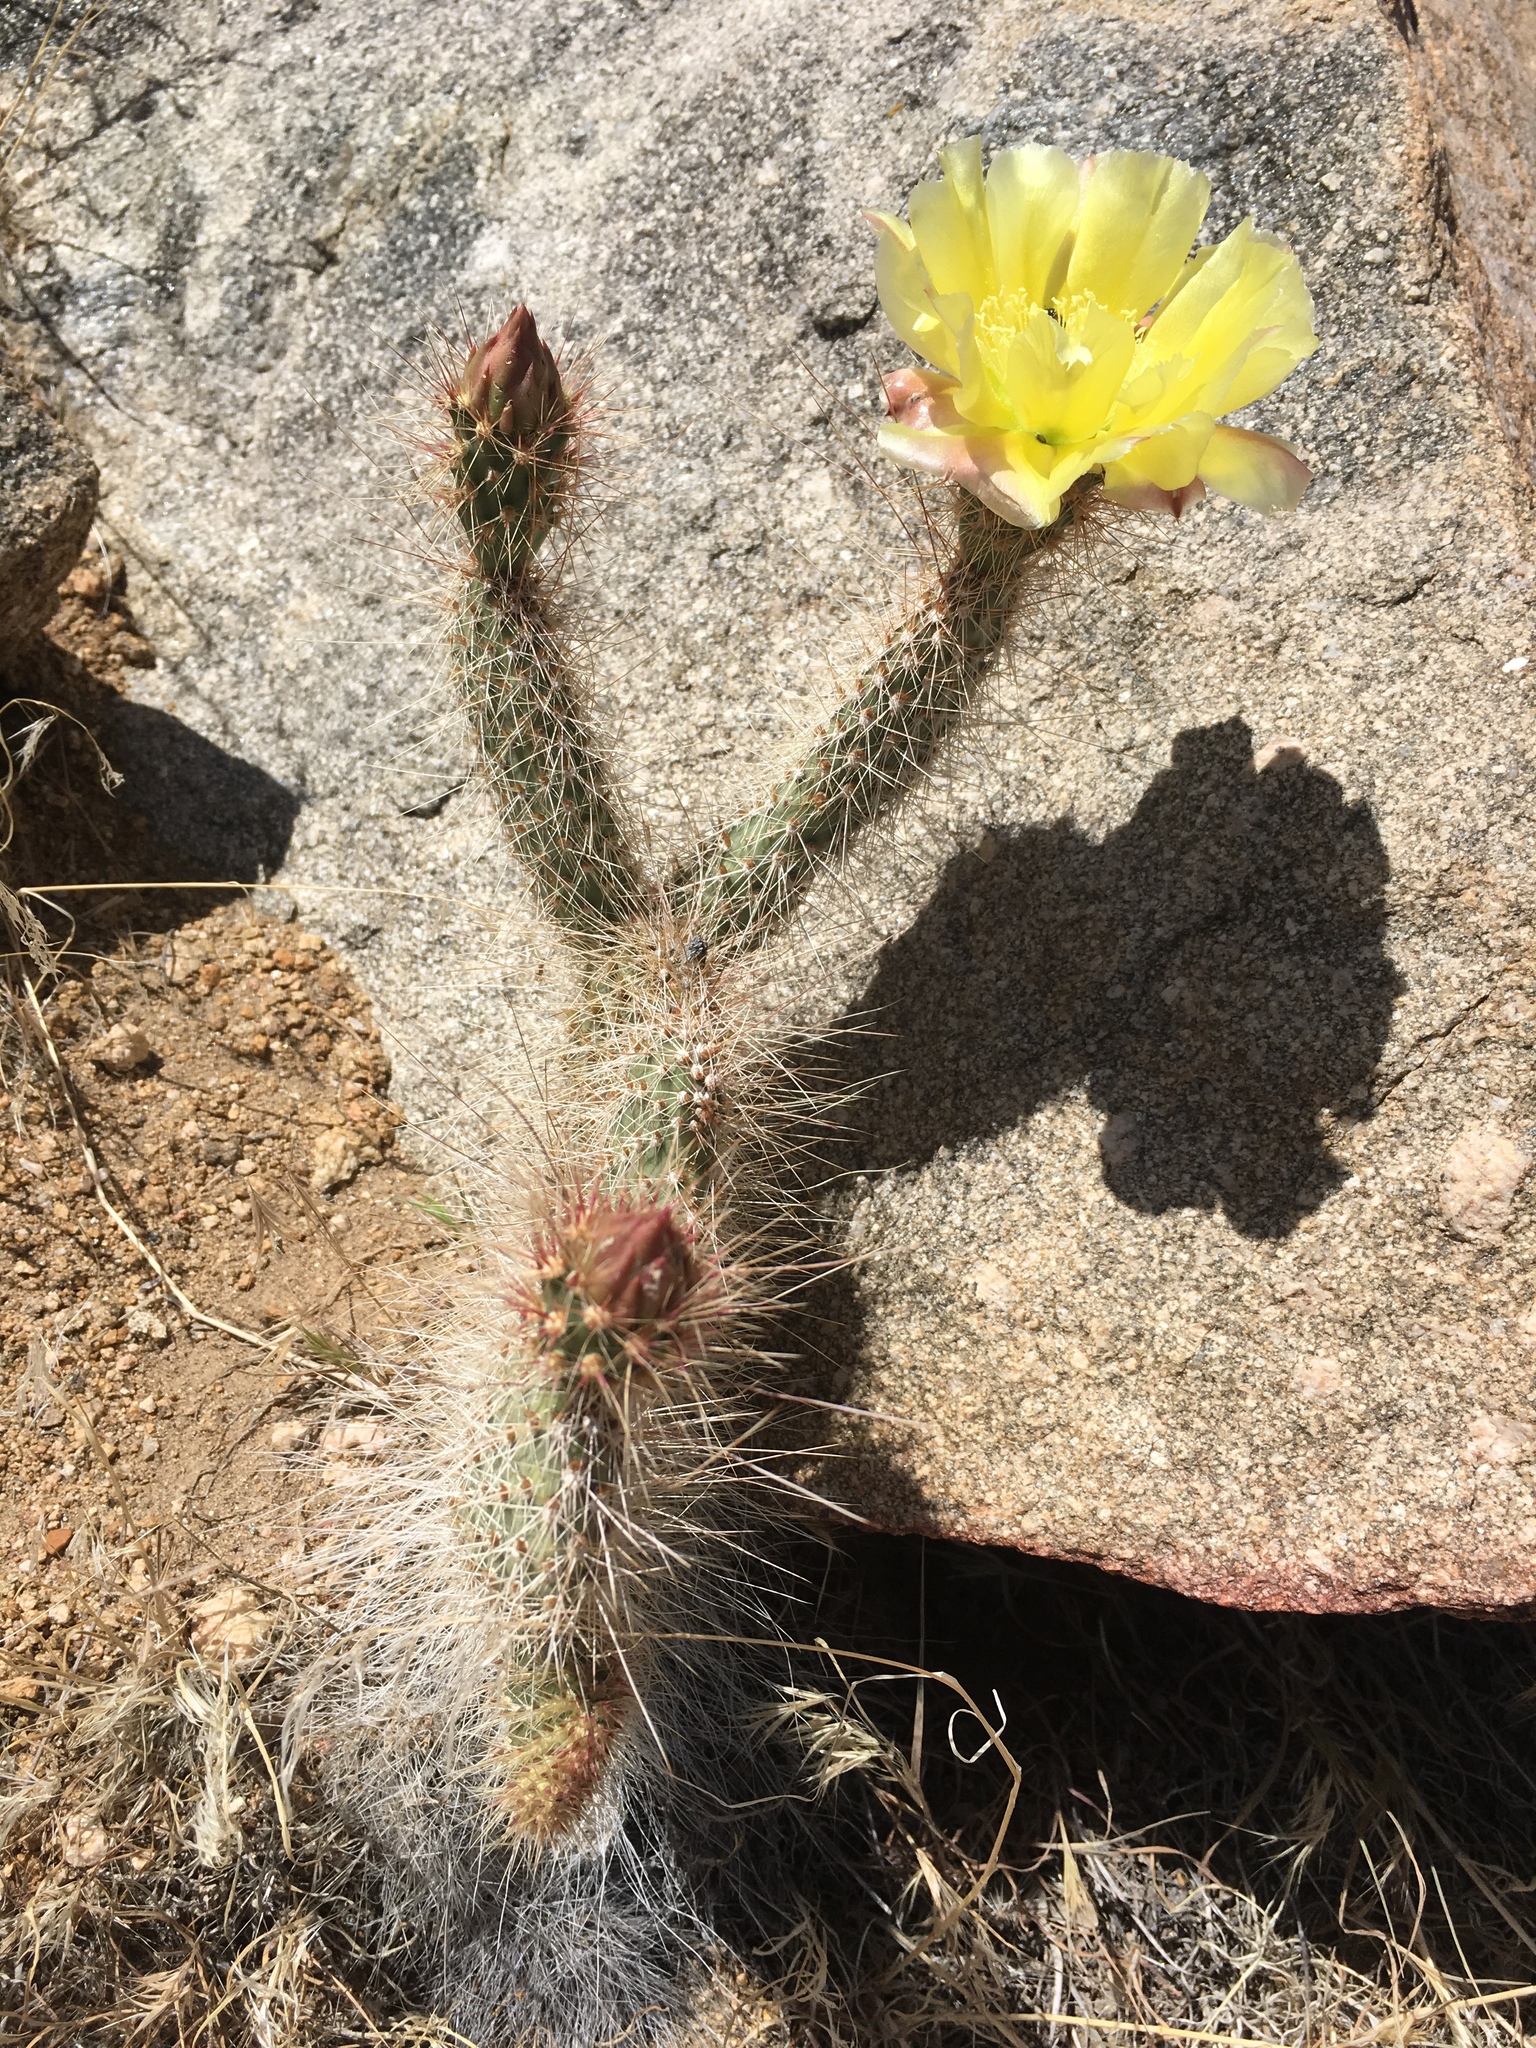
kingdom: Plantae
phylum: Tracheophyta
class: Magnoliopsida
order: Caryophyllales
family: Cactaceae
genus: Opuntia
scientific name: Opuntia polyacantha
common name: Plains prickly-pear
